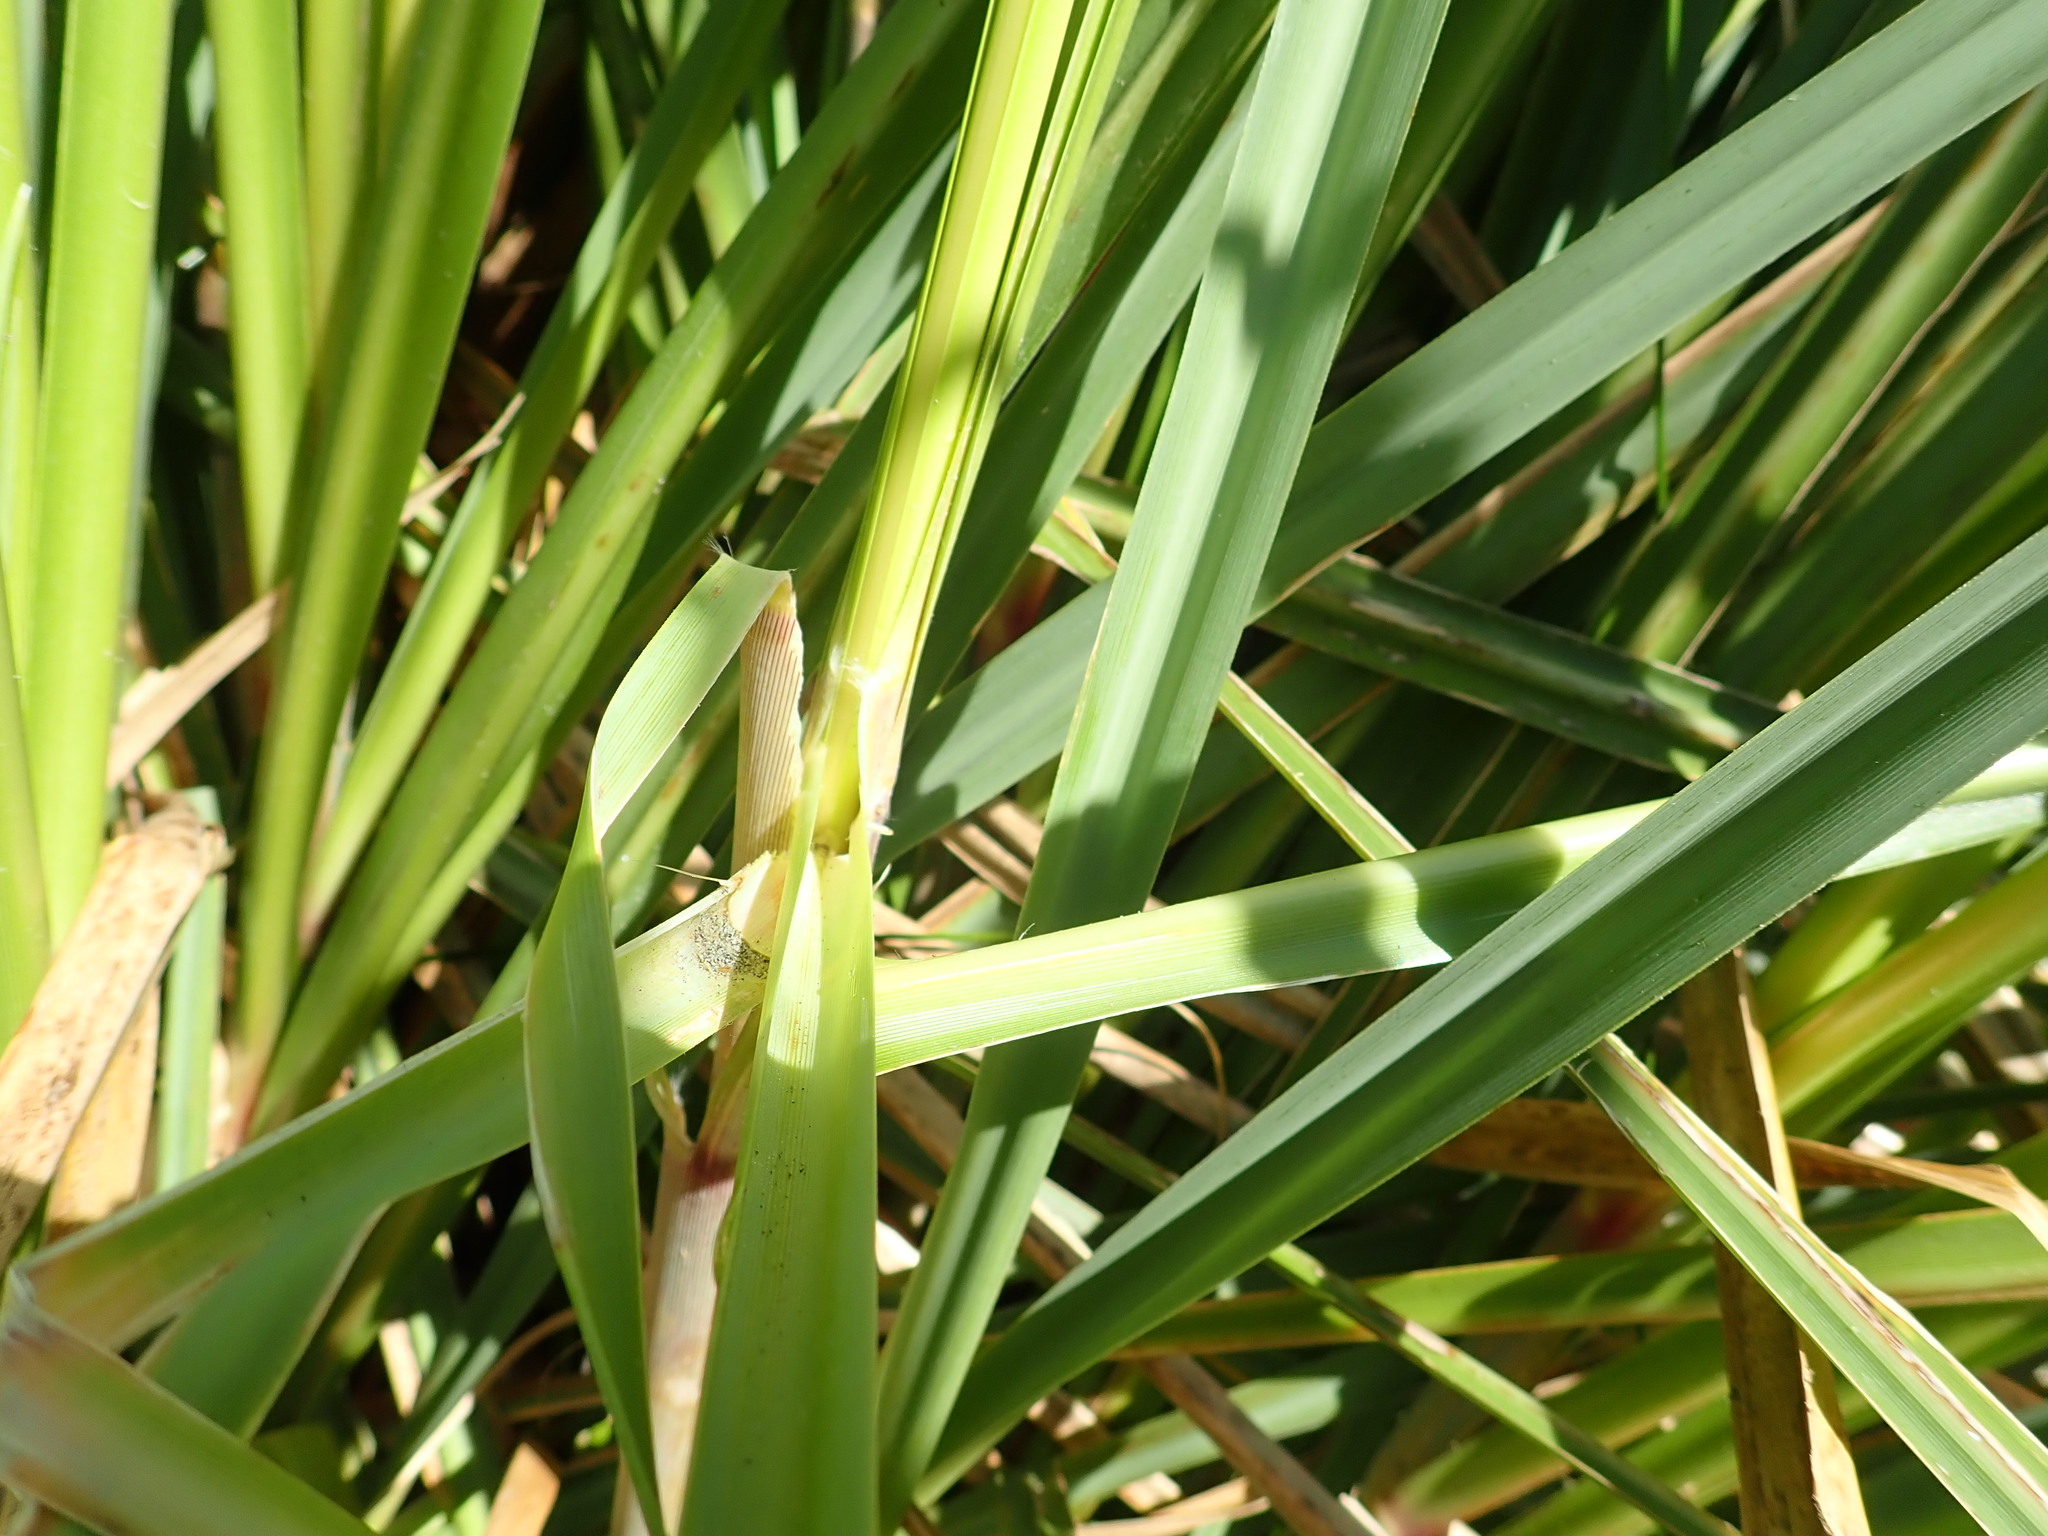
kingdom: Plantae
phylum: Tracheophyta
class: Liliopsida
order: Poales
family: Poaceae
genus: Cortaderia
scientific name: Cortaderia jubata
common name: Purple pampas grass
